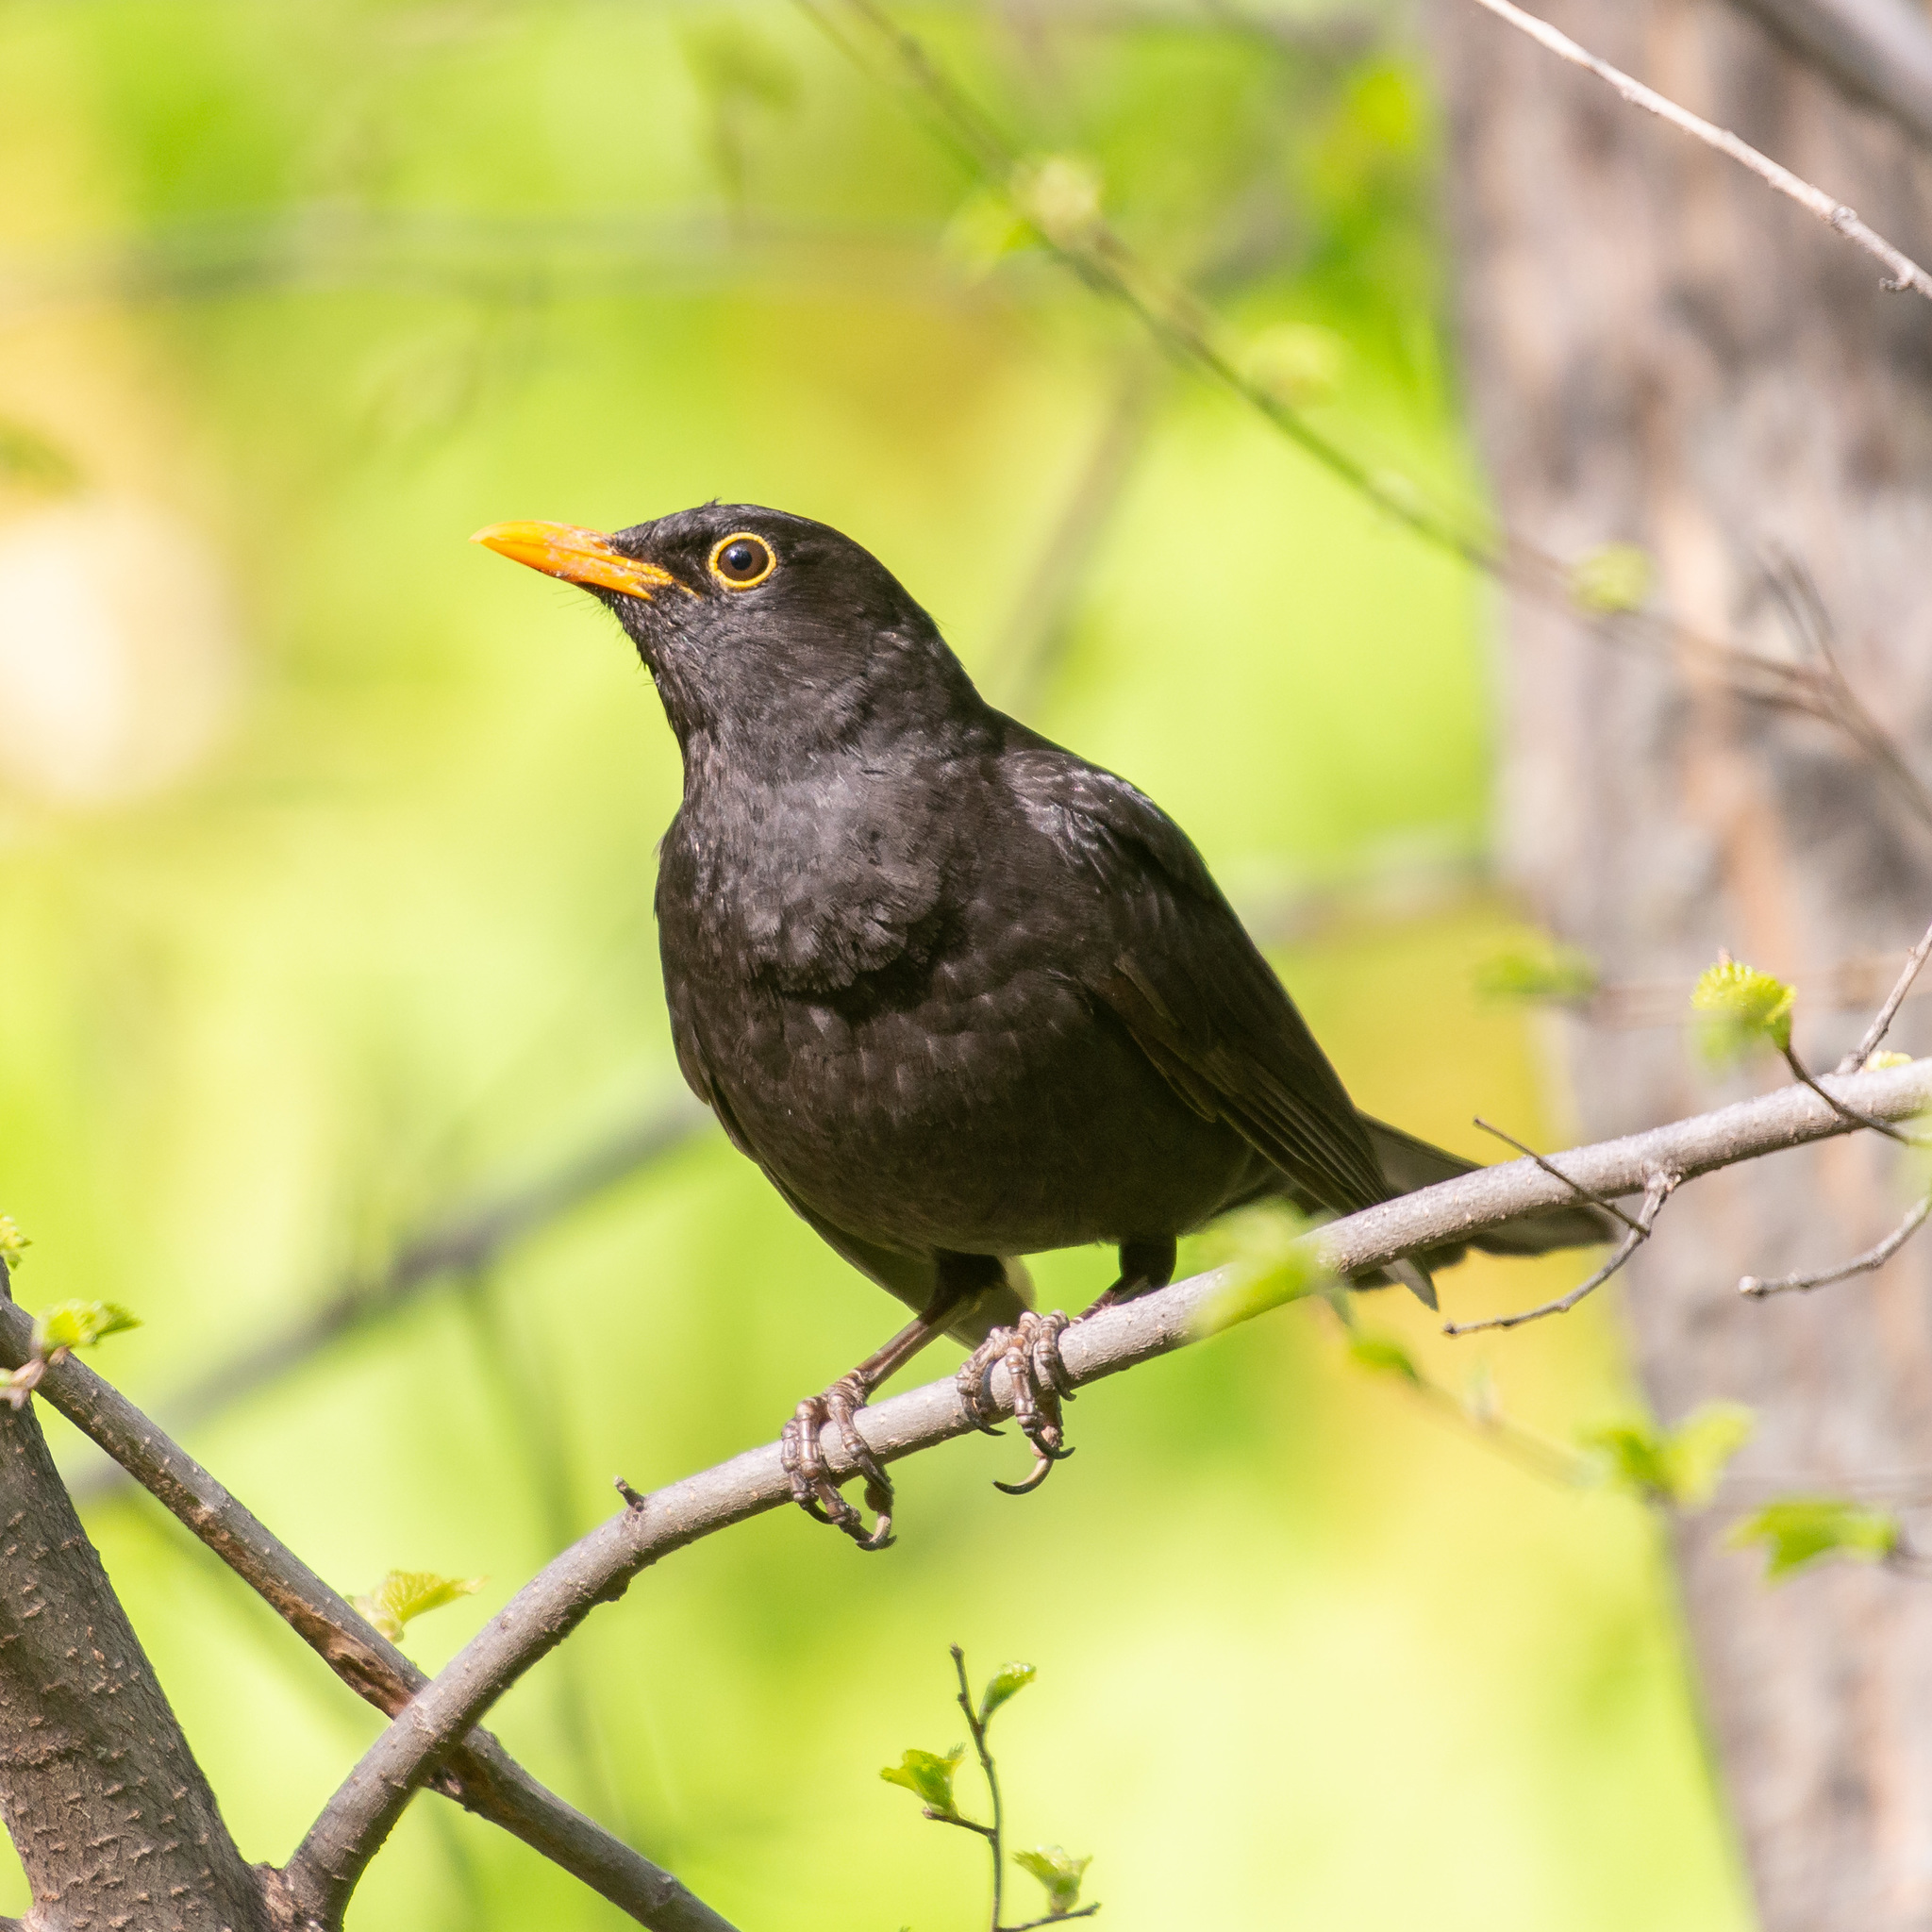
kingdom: Animalia
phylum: Chordata
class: Aves
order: Passeriformes
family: Turdidae
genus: Turdus
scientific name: Turdus merula
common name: Common blackbird
